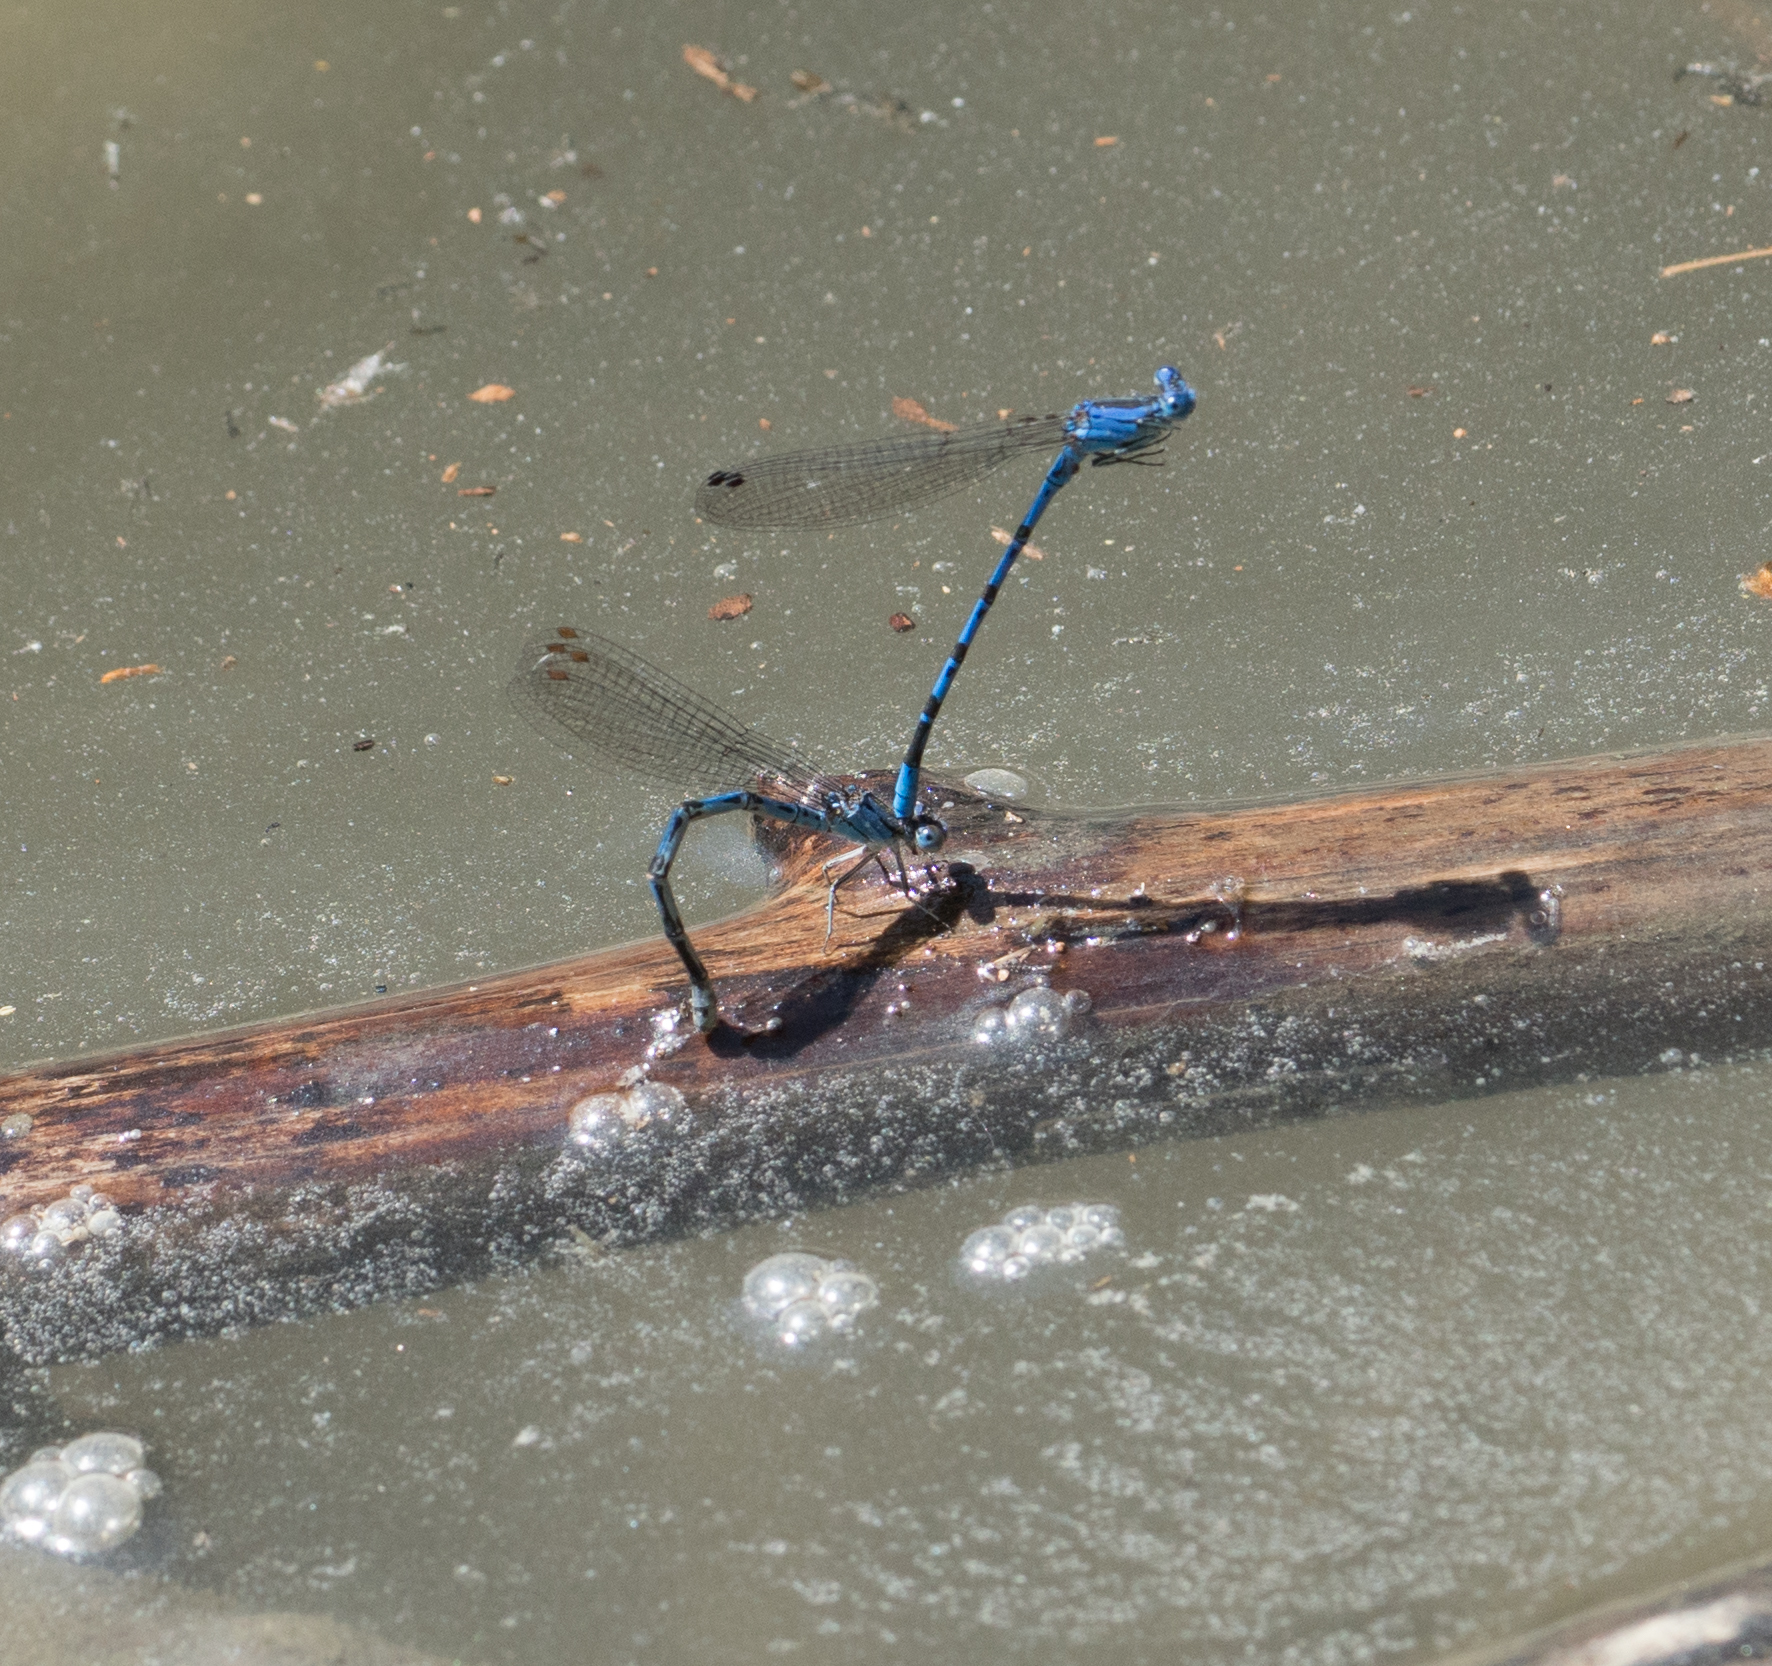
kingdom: Animalia
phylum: Arthropoda
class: Insecta
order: Odonata
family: Coenagrionidae
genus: Argia
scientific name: Argia vivida
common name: Vivid dancer
